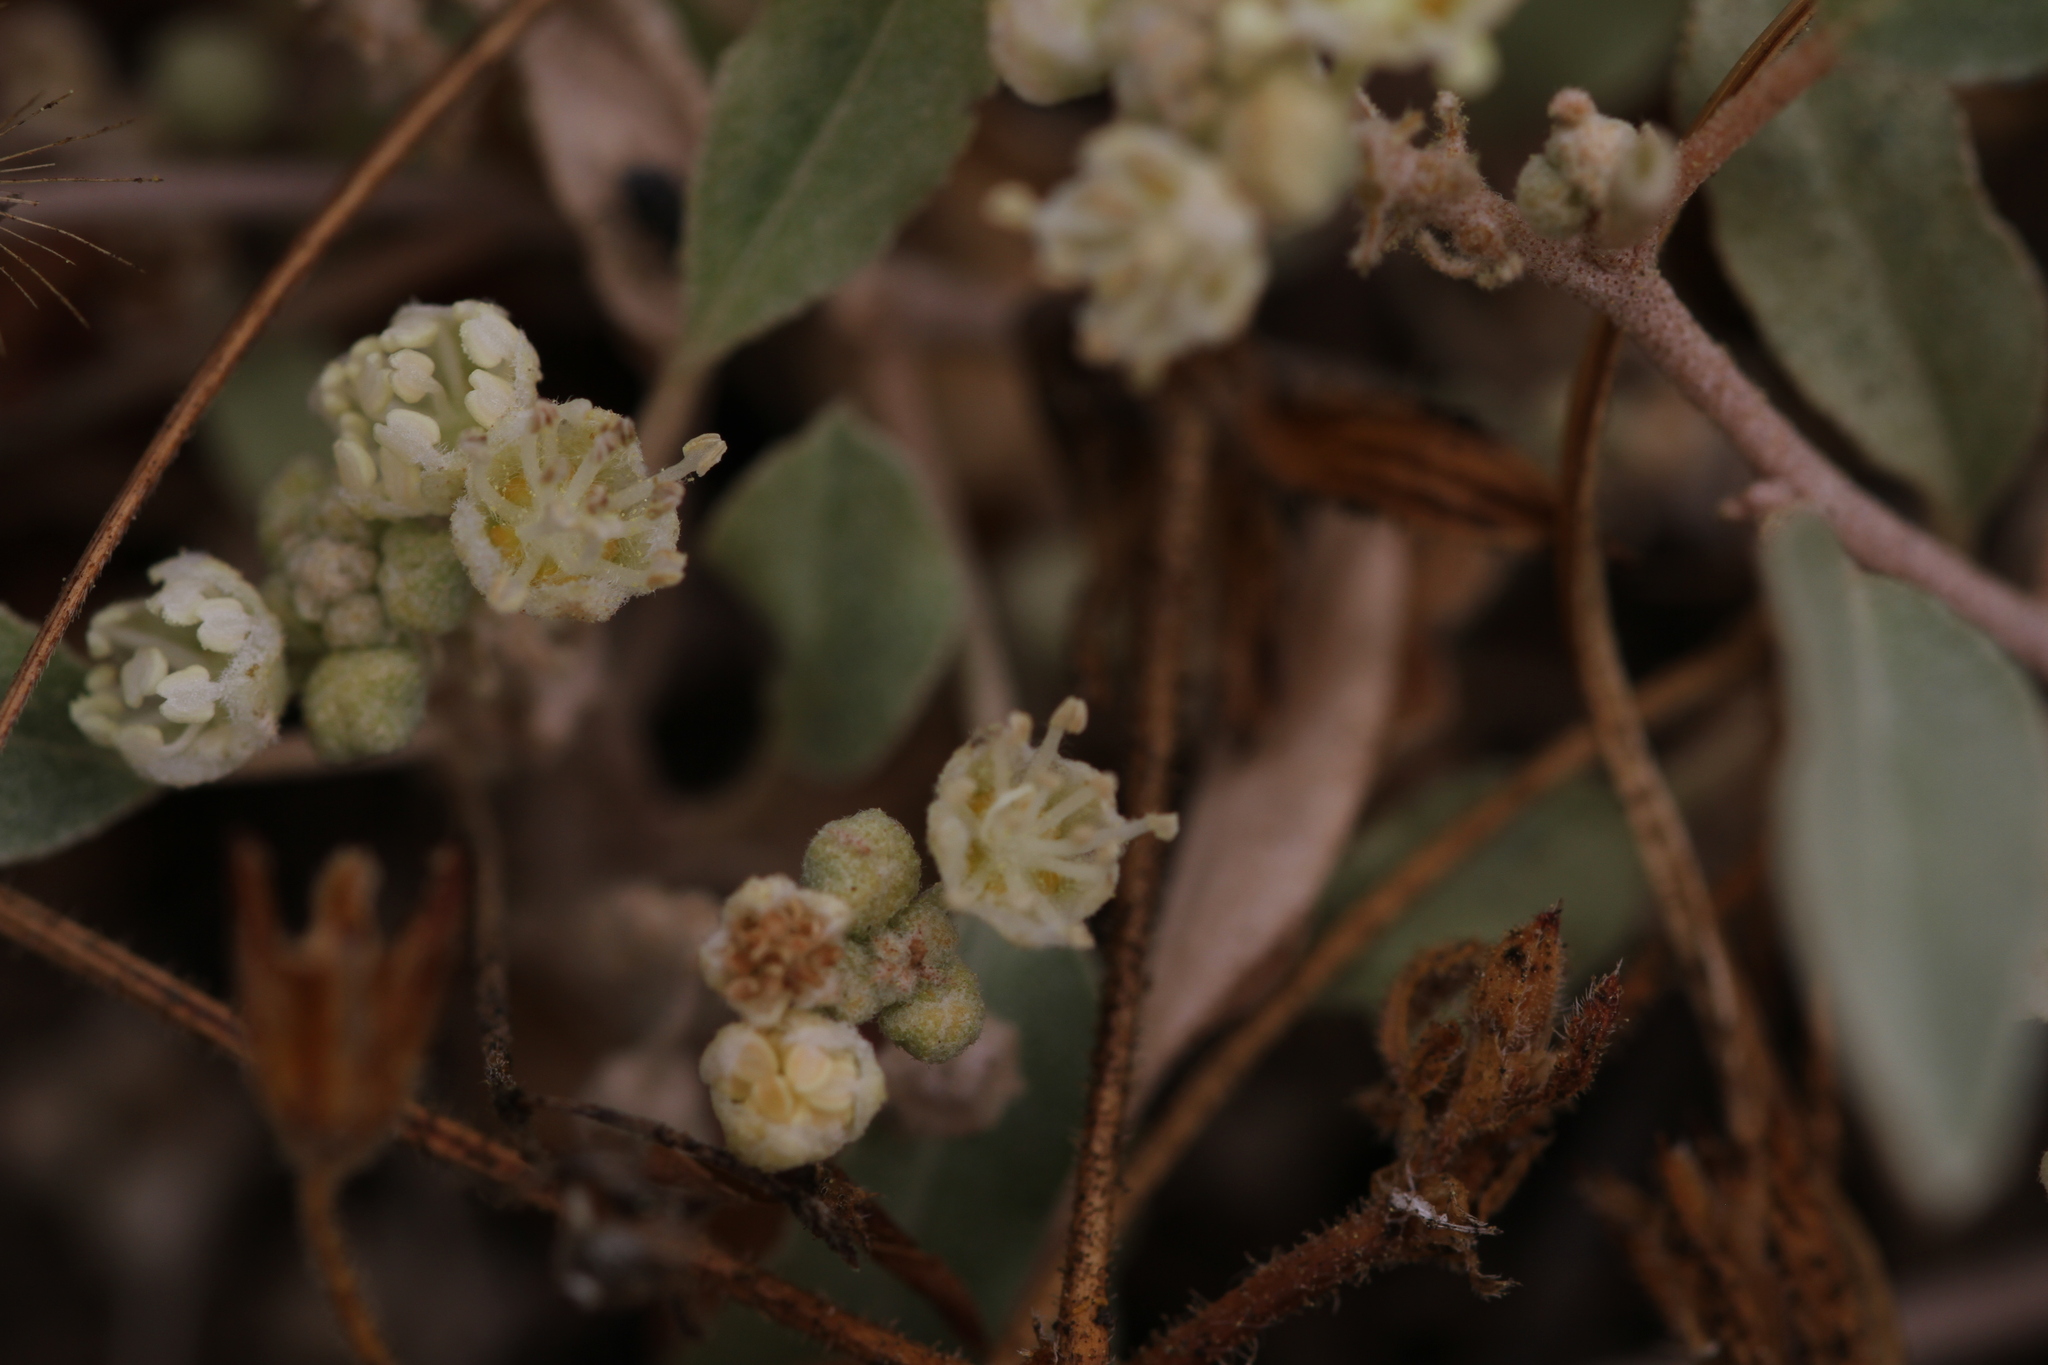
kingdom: Plantae
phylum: Tracheophyta
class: Magnoliopsida
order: Malpighiales
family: Euphorbiaceae
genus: Croton
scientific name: Croton californicus
